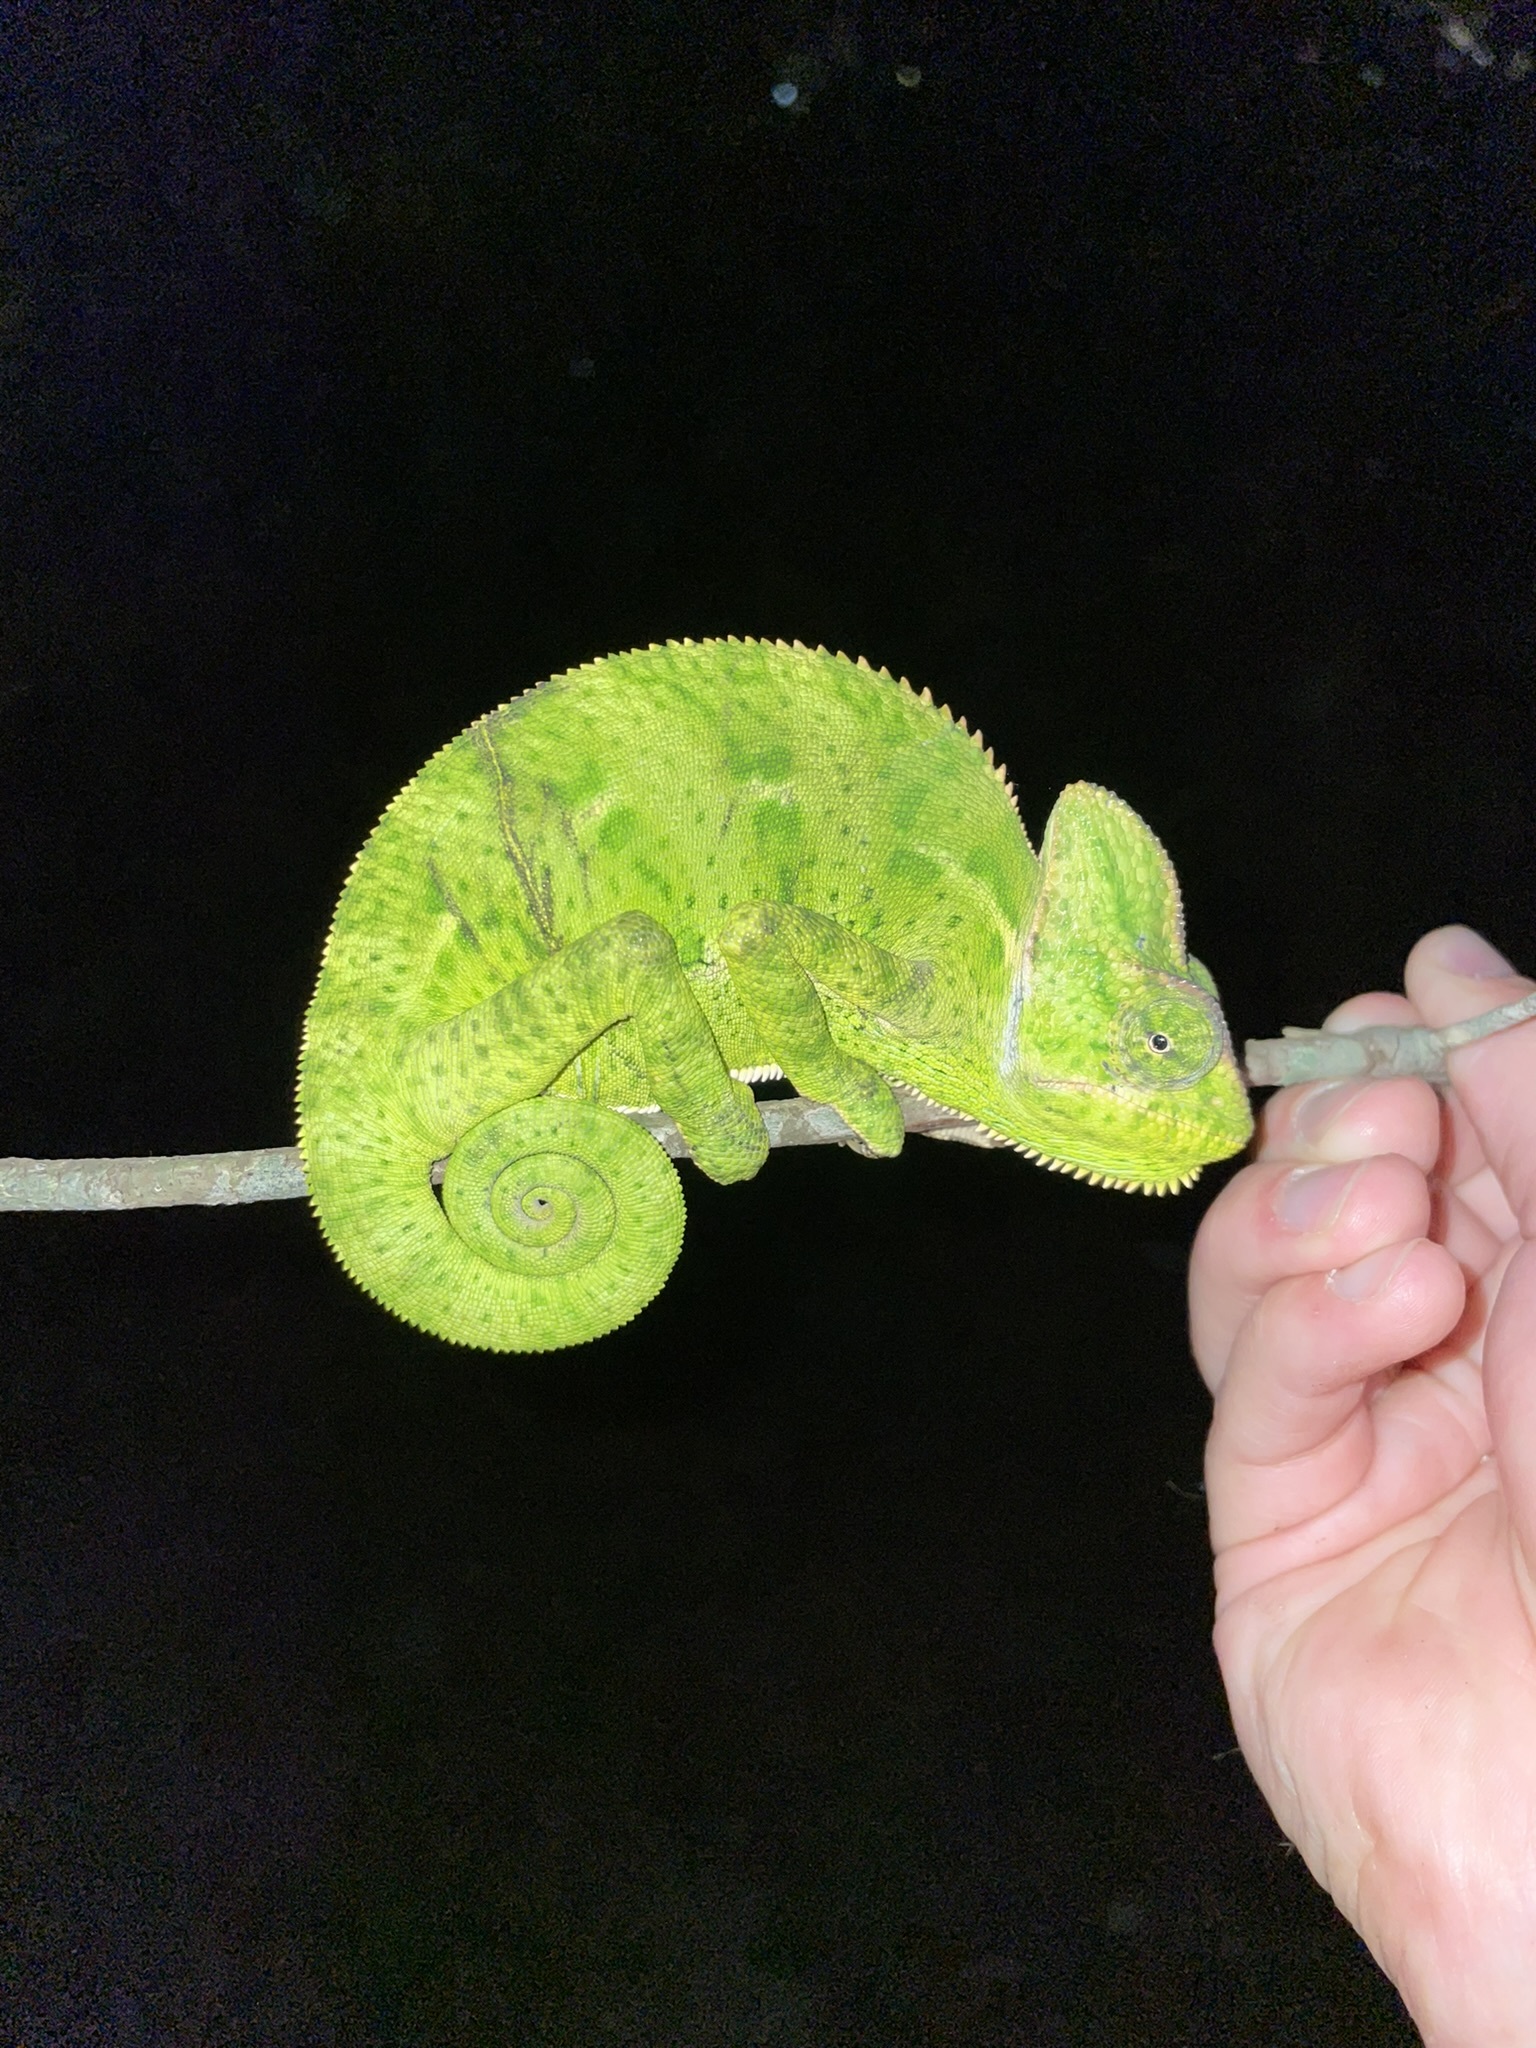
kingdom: Animalia
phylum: Chordata
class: Squamata
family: Chamaeleonidae
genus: Chamaeleo
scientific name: Chamaeleo calyptratus
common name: Veiled chameleon
